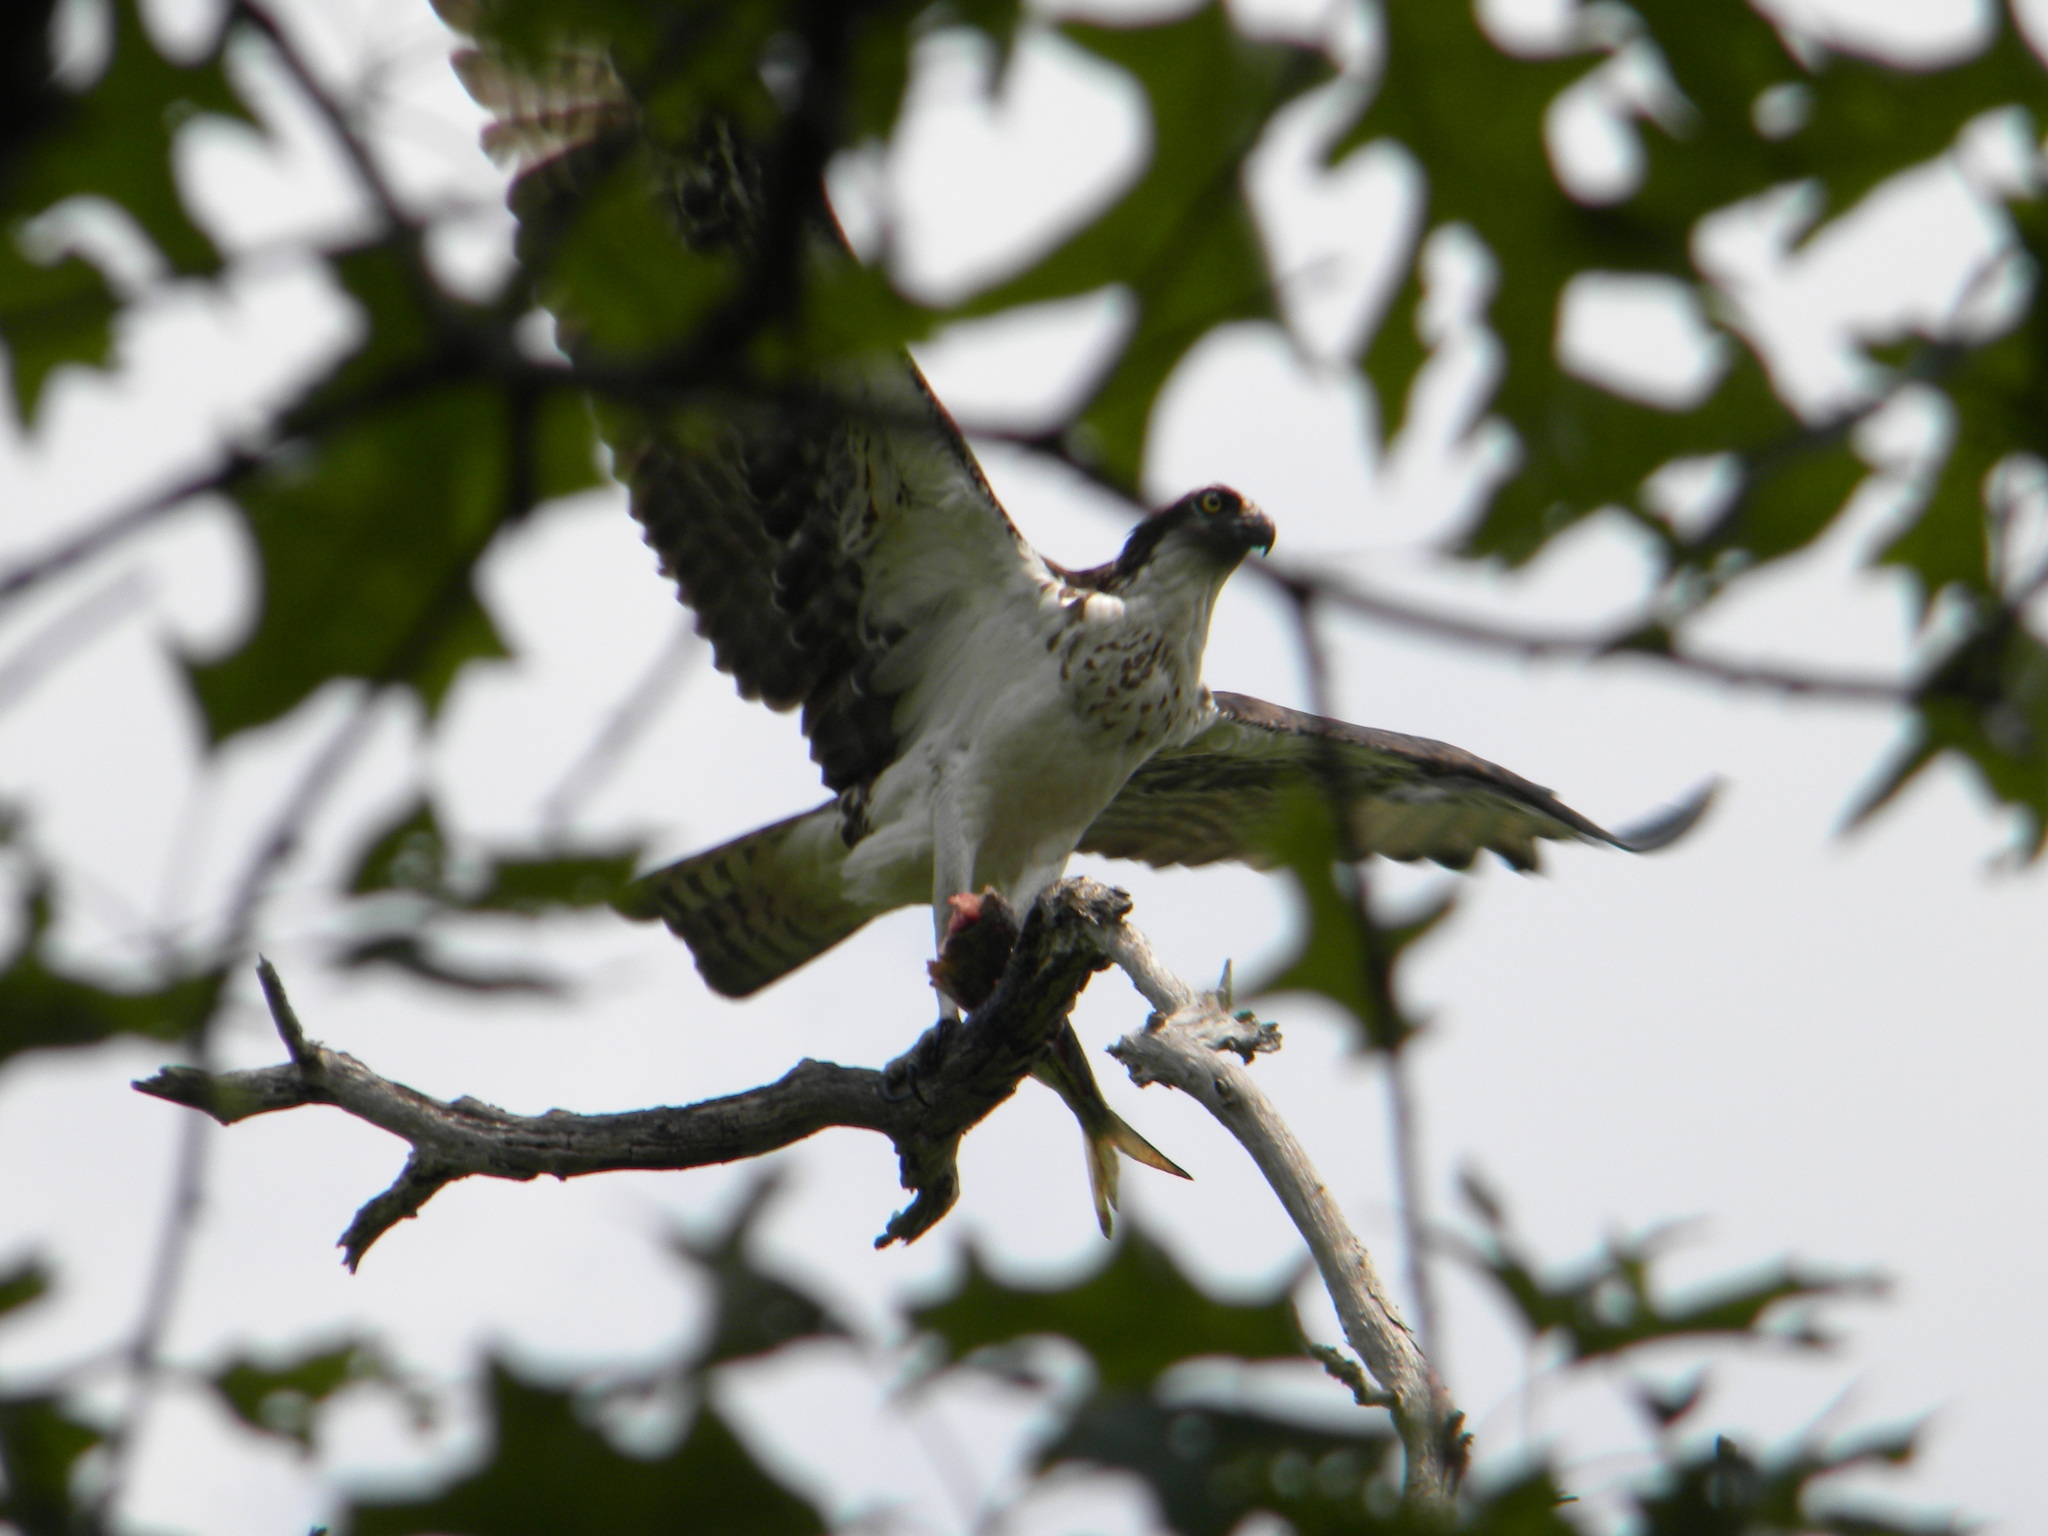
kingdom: Animalia
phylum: Chordata
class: Aves
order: Accipitriformes
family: Pandionidae
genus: Pandion
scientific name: Pandion haliaetus
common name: Osprey
